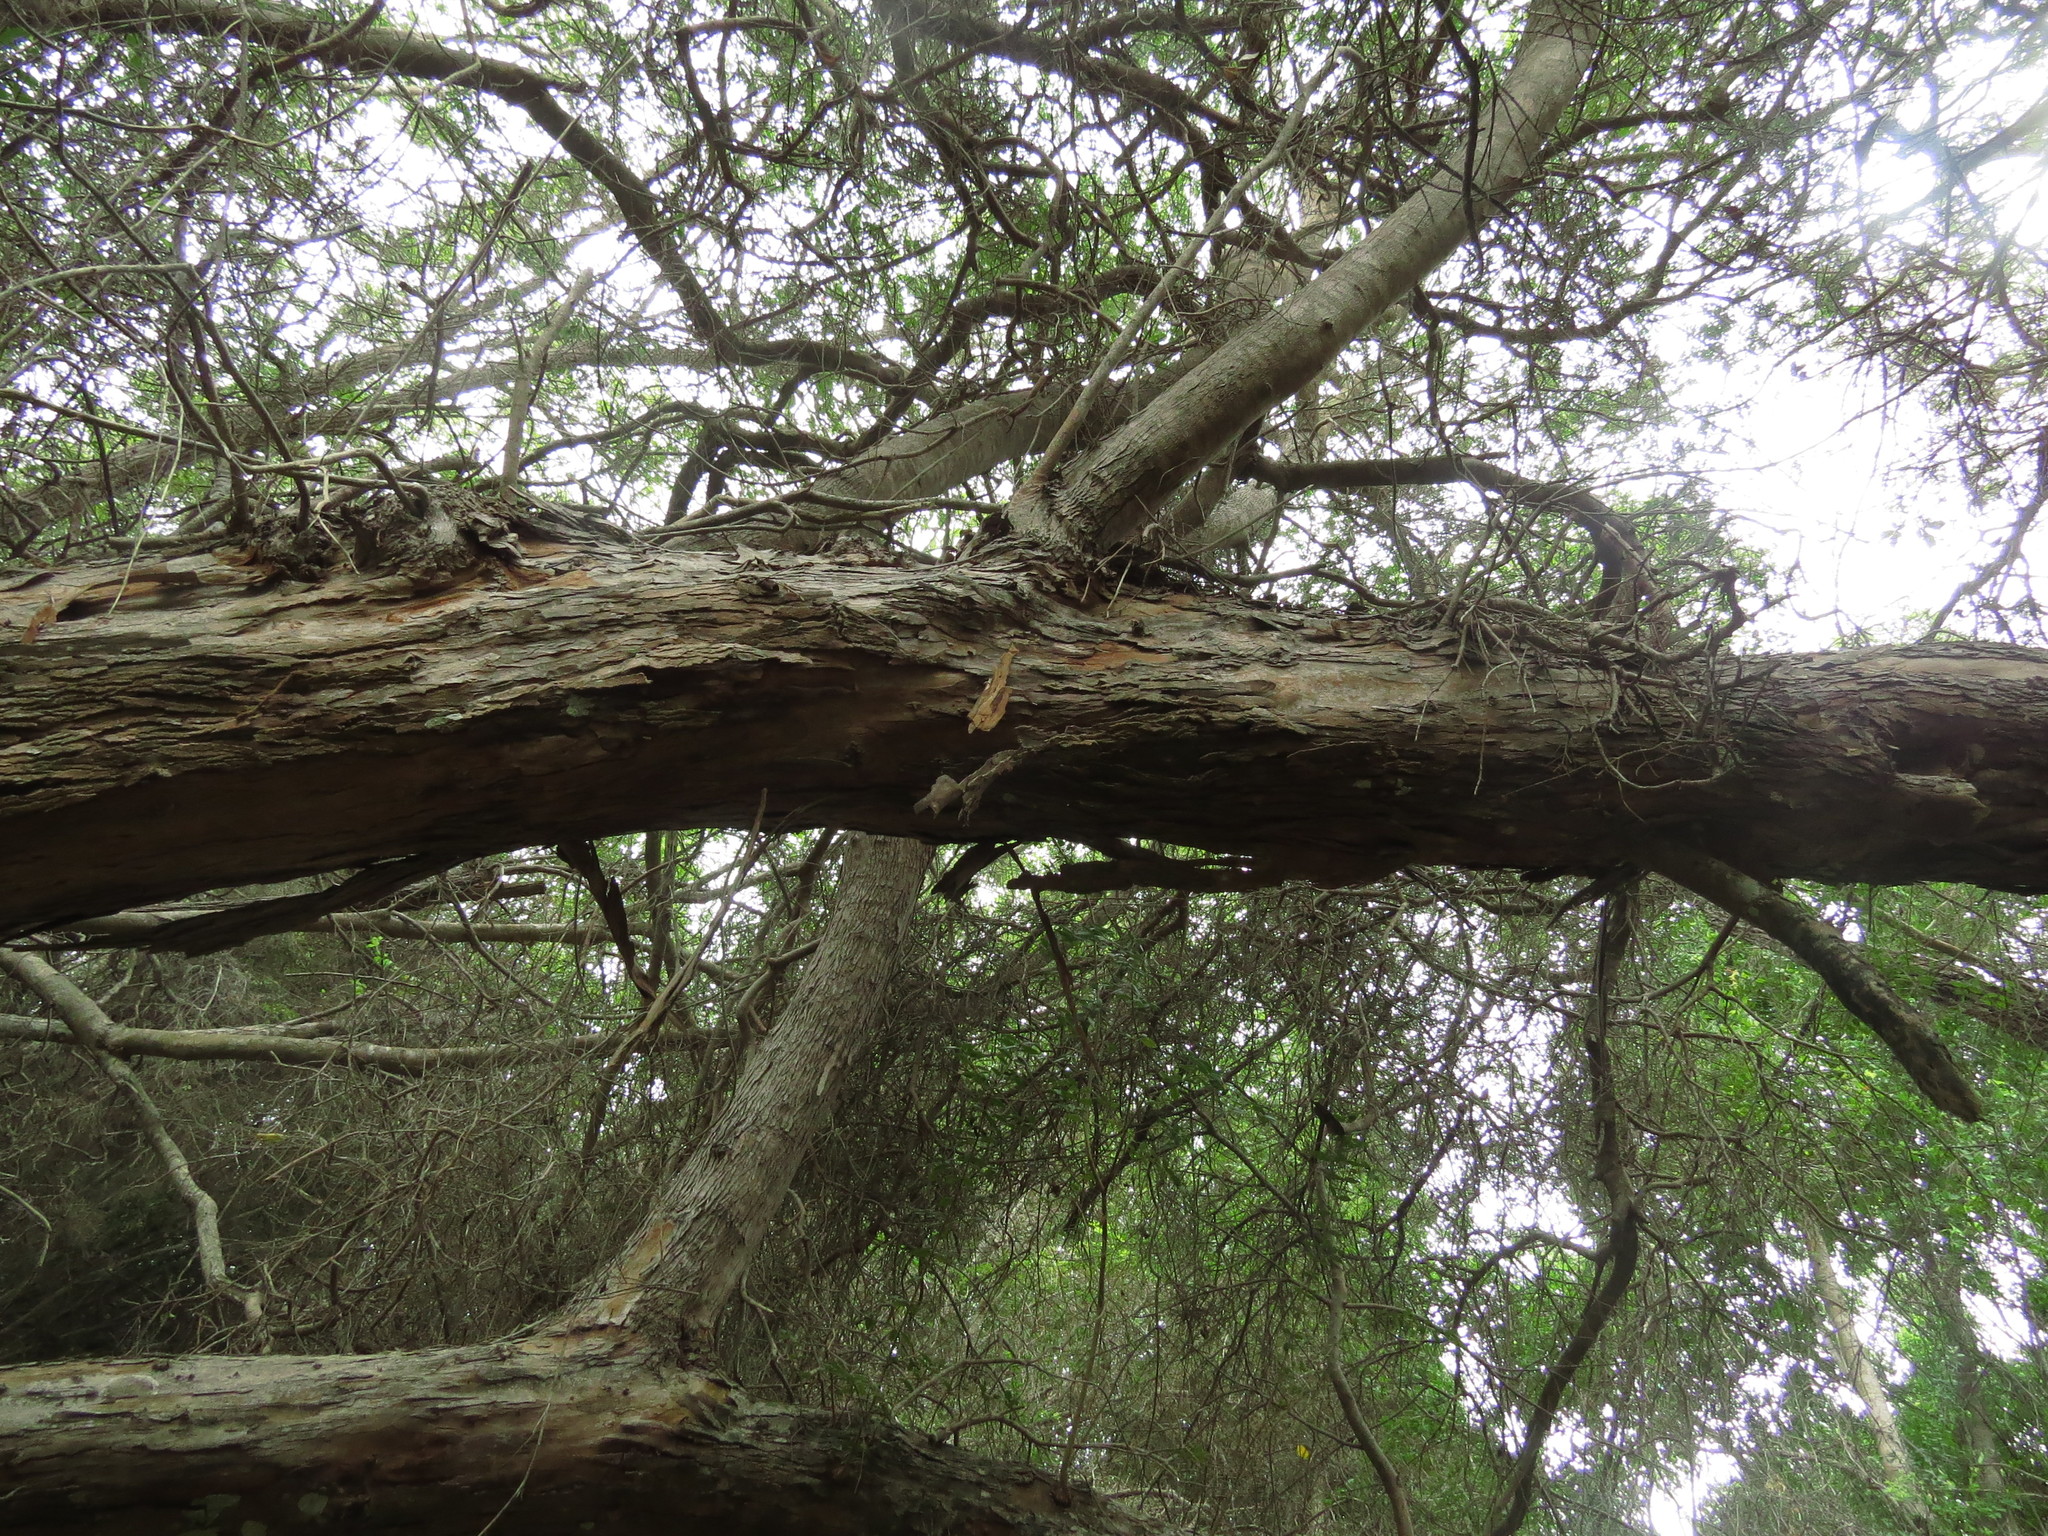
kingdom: Plantae
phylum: Tracheophyta
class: Magnoliopsida
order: Myrtales
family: Myrtaceae
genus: Luma
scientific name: Luma chequen
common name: Cheken
